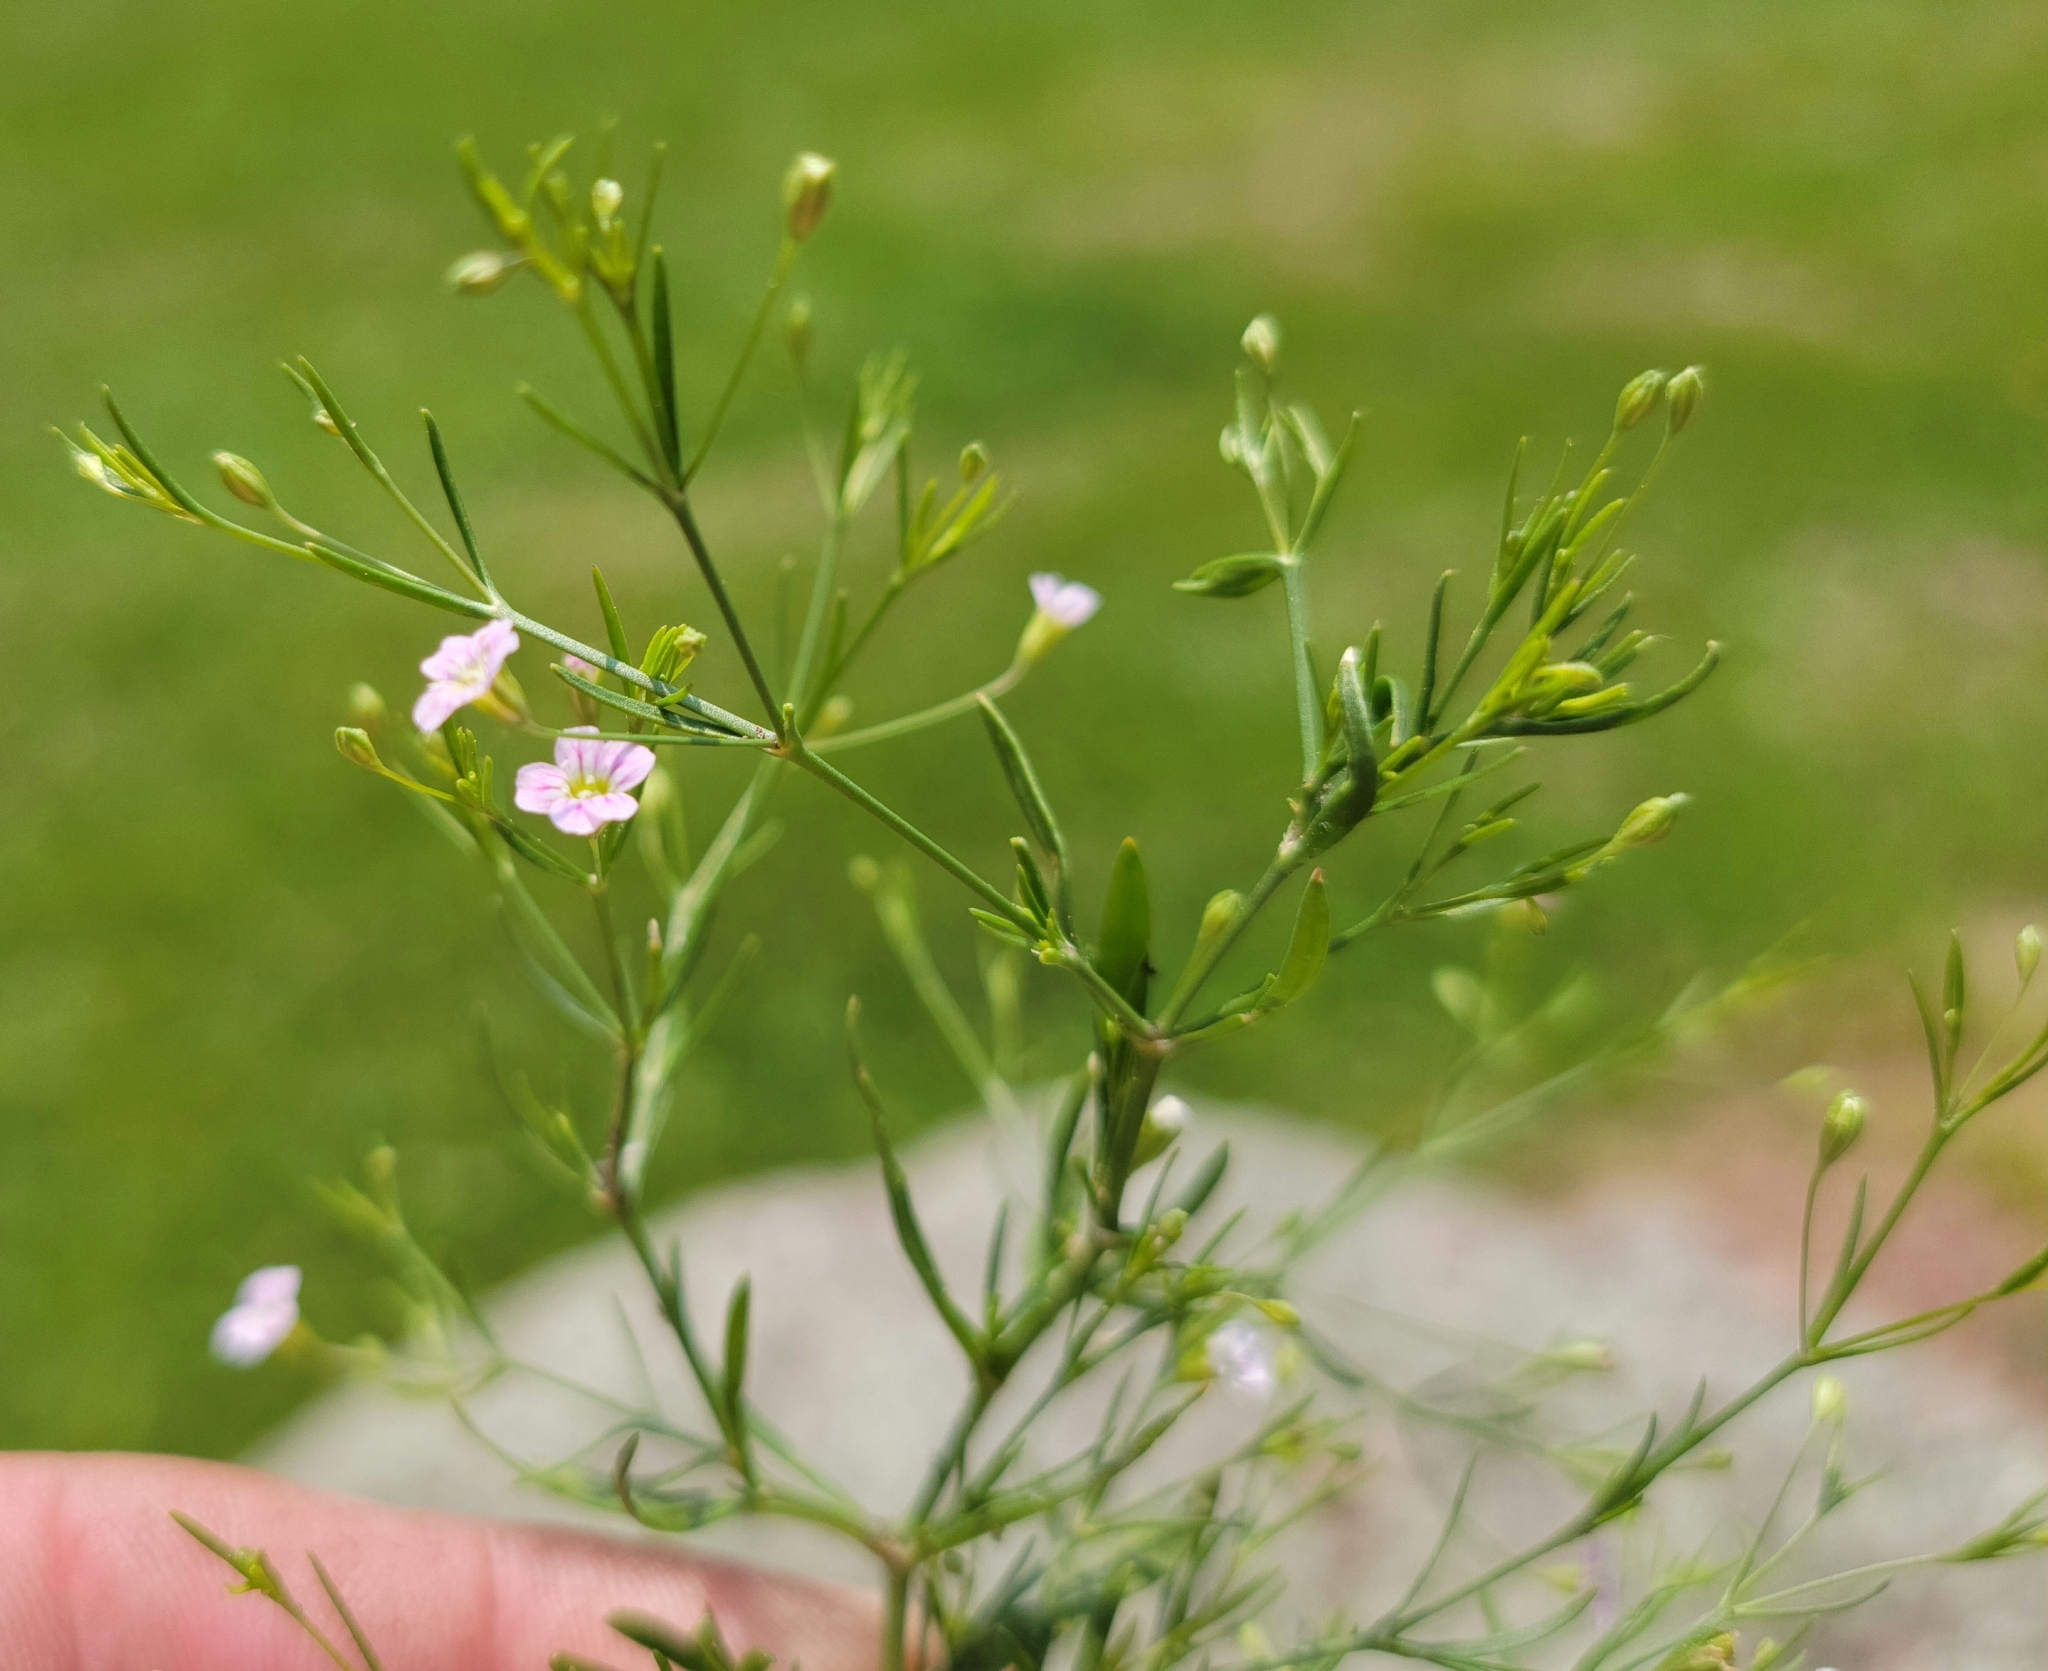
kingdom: Plantae
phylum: Tracheophyta
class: Magnoliopsida
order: Caryophyllales
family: Caryophyllaceae
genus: Psammophiliella
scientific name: Psammophiliella muralis
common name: Cushion baby's-breath
